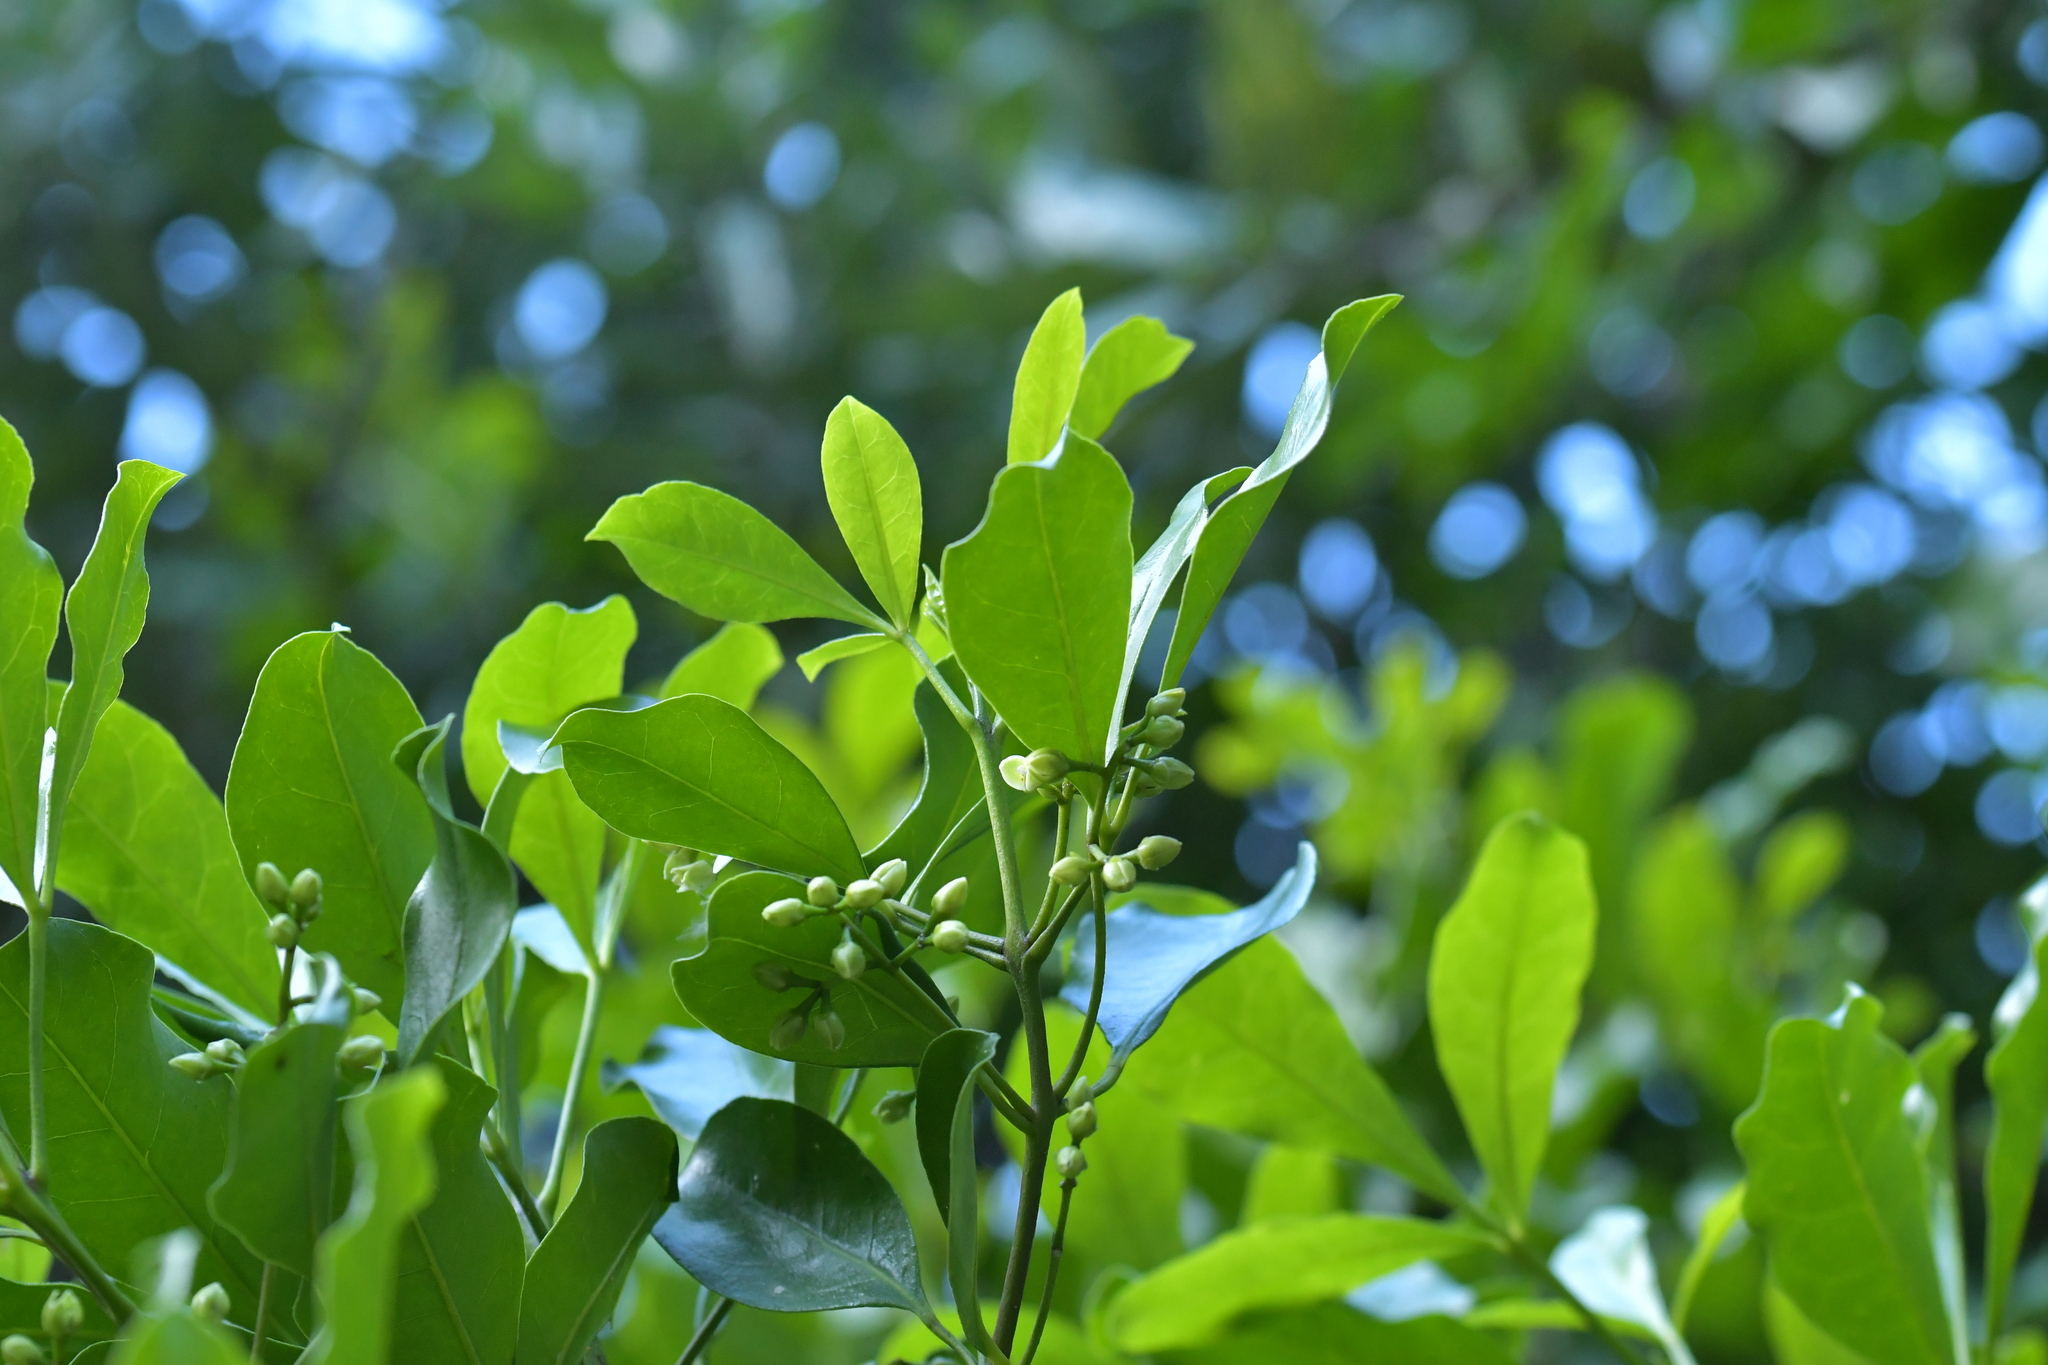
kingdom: Plantae
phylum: Tracheophyta
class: Magnoliopsida
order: Sapindales
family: Rutaceae
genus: Melicope
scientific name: Melicope ternata
